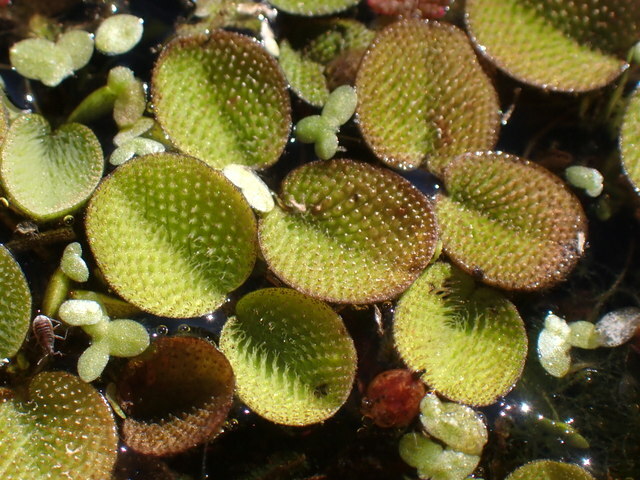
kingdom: Plantae
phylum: Tracheophyta
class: Polypodiopsida
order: Salviniales
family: Salviniaceae
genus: Salvinia
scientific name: Salvinia minima
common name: Water spangles
